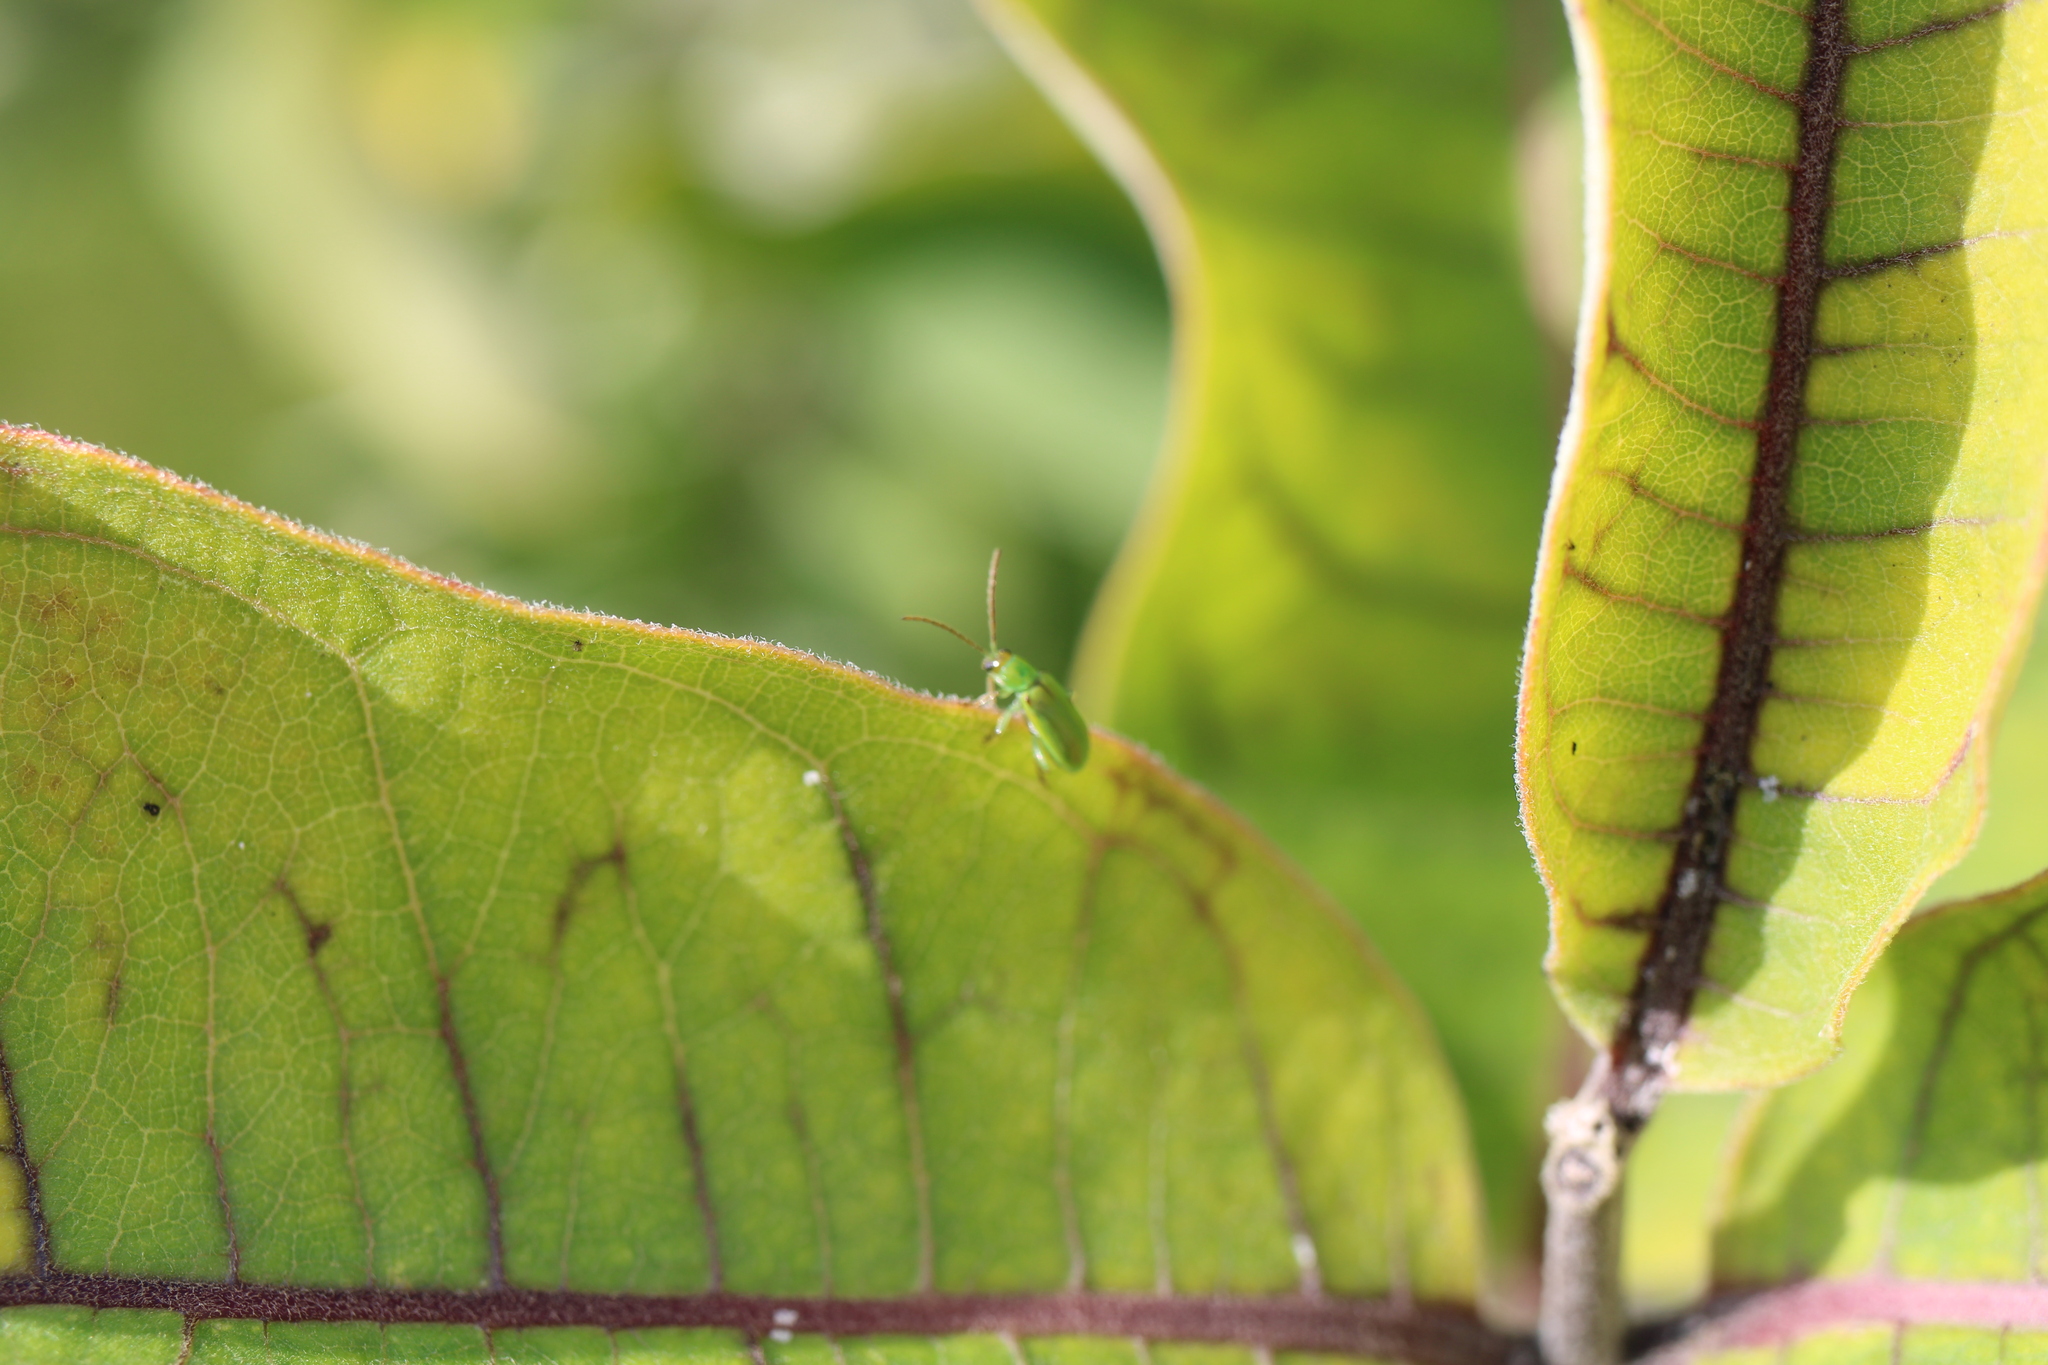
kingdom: Animalia
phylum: Arthropoda
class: Insecta
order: Coleoptera
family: Chrysomelidae
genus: Diabrotica
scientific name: Diabrotica barberi
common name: Northern corn rootworm
